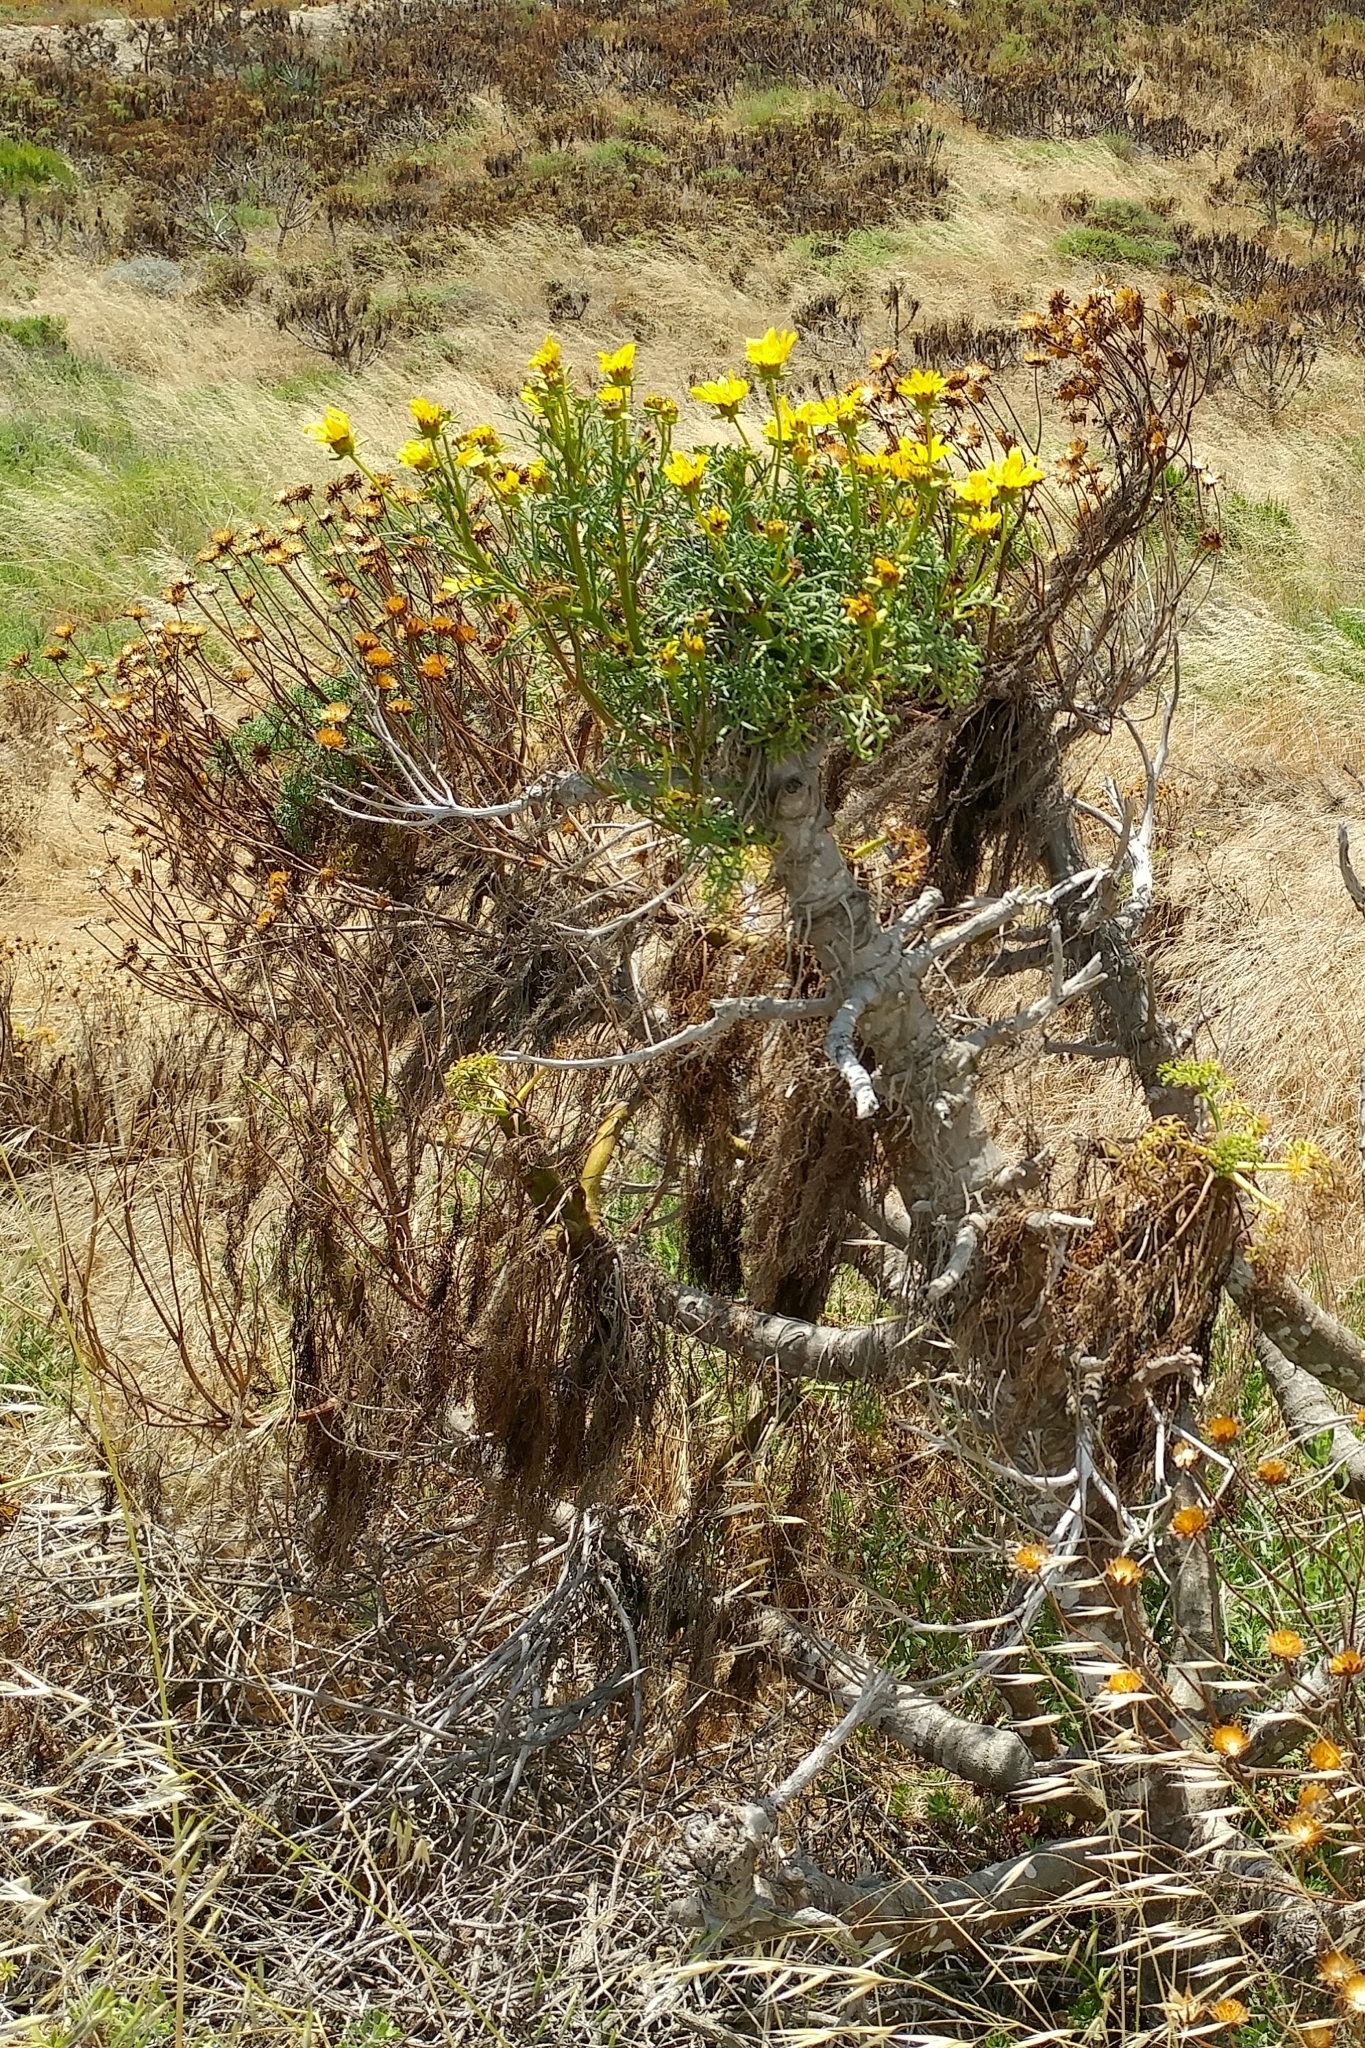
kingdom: Plantae
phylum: Tracheophyta
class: Magnoliopsida
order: Asterales
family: Asteraceae
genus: Coreopsis
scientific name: Coreopsis gigantea
